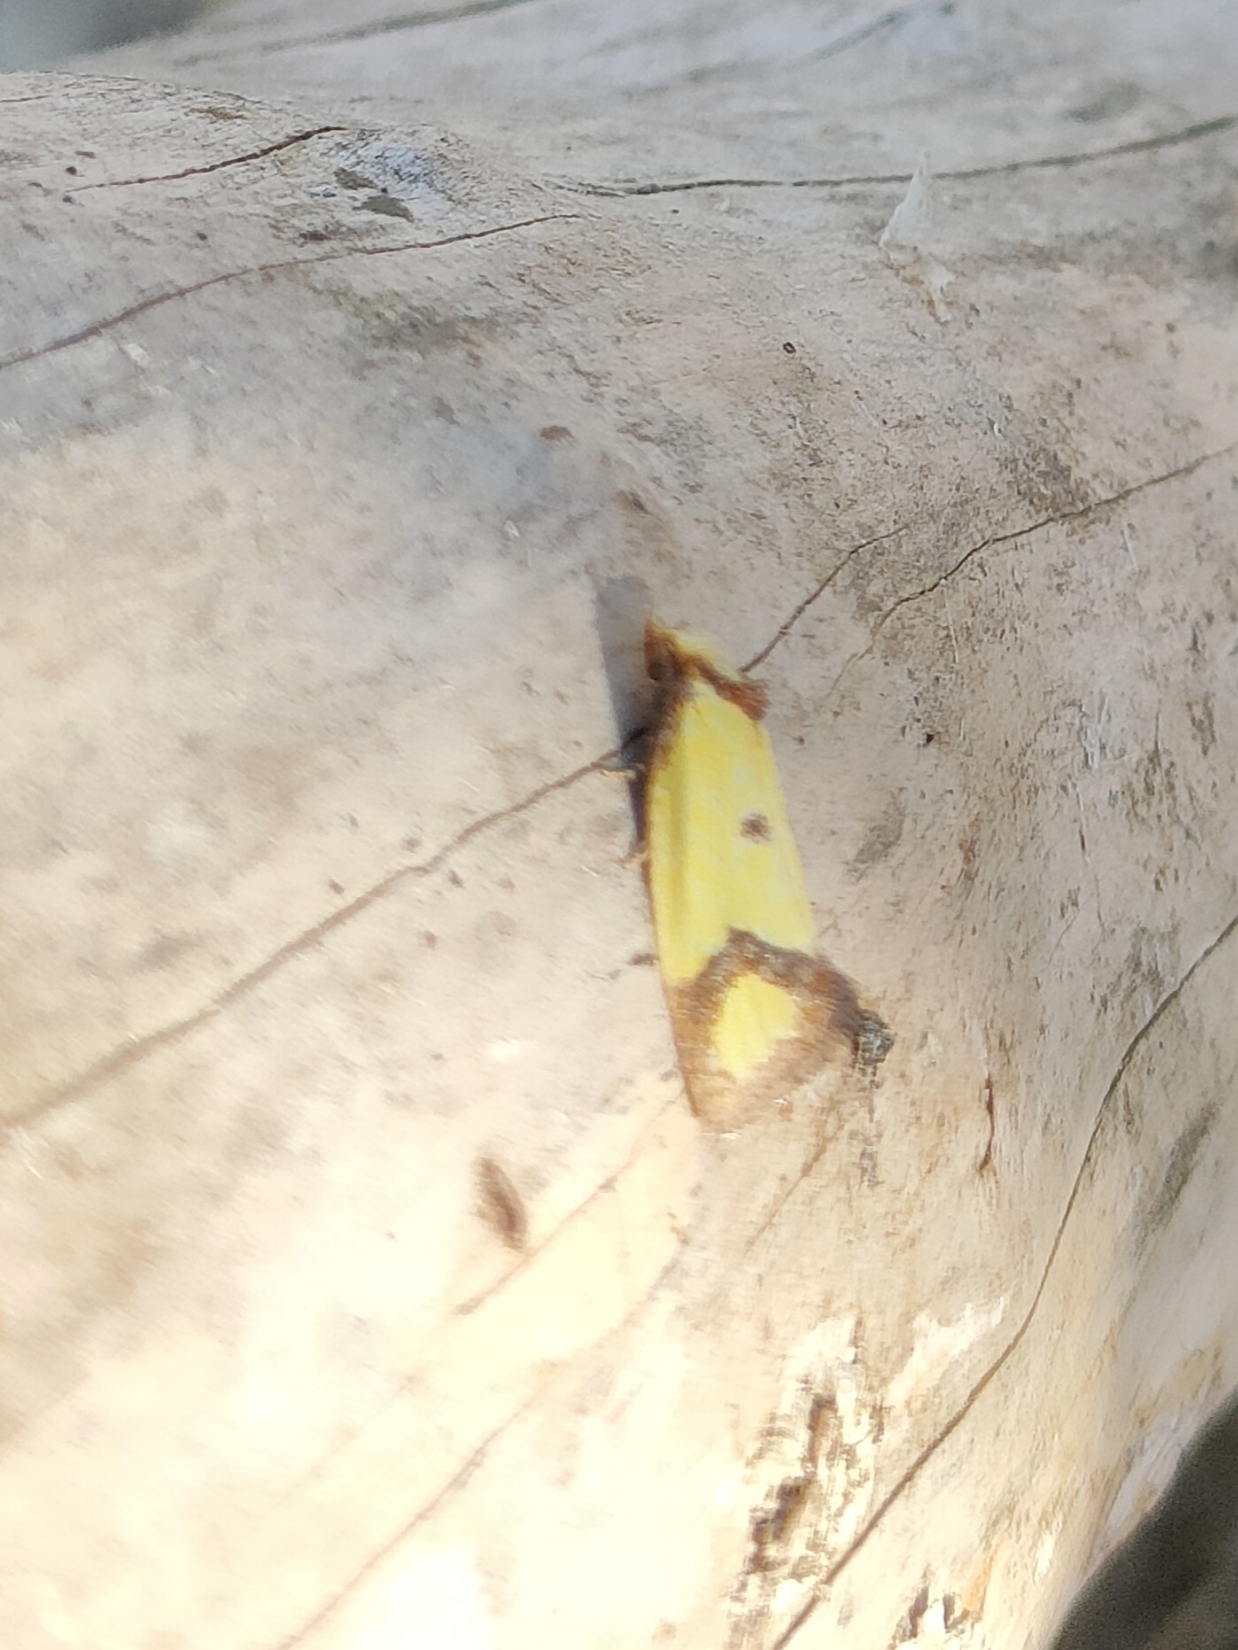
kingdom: Animalia
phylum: Arthropoda
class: Insecta
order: Lepidoptera
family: Tortricidae
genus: Agapeta
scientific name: Agapeta zoegana
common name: Sulfur knapweed root moth
